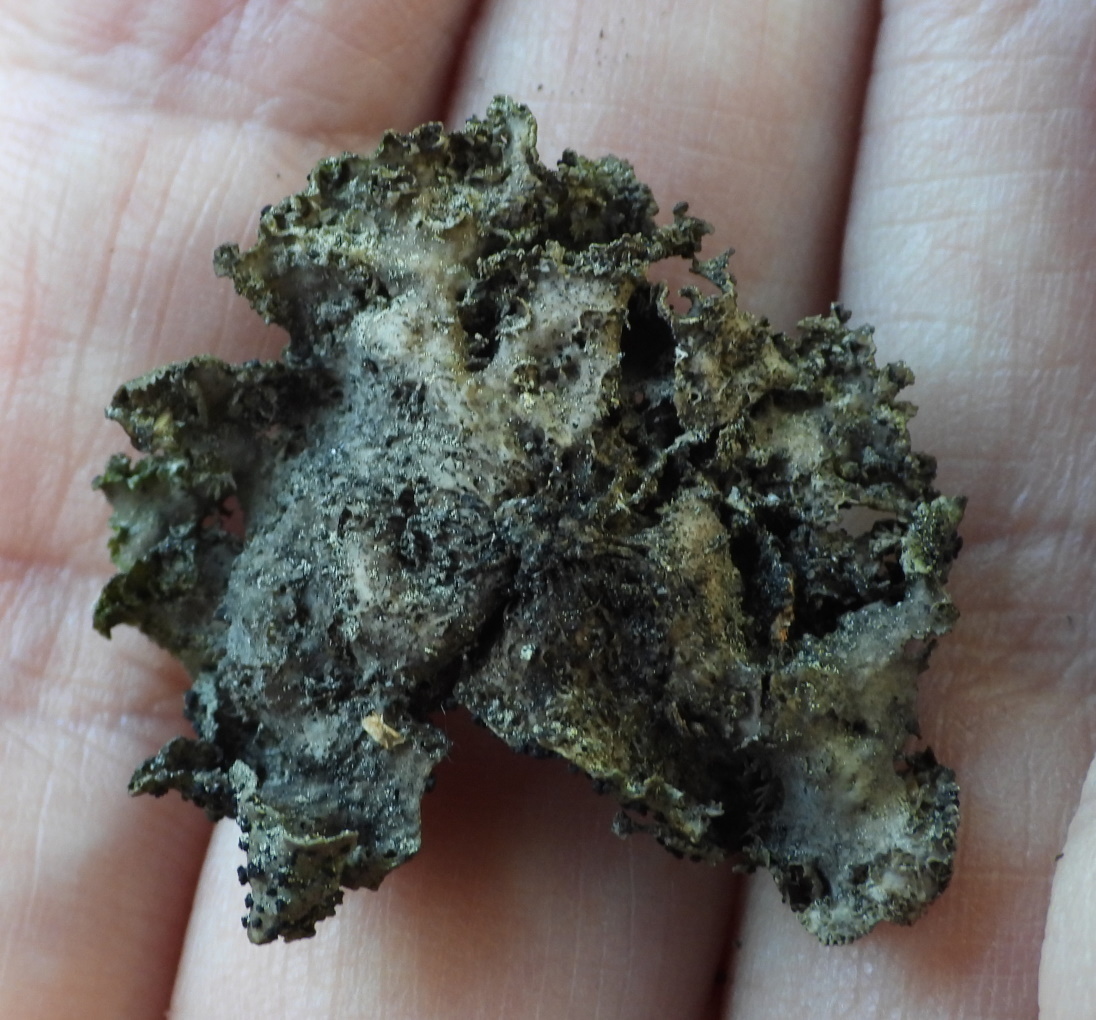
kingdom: Fungi
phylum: Ascomycota
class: Lecanoromycetes
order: Umbilicariales
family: Umbilicariaceae
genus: Umbilicaria
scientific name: Umbilicaria torrefacta
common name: Punctured rock tripe lichen
